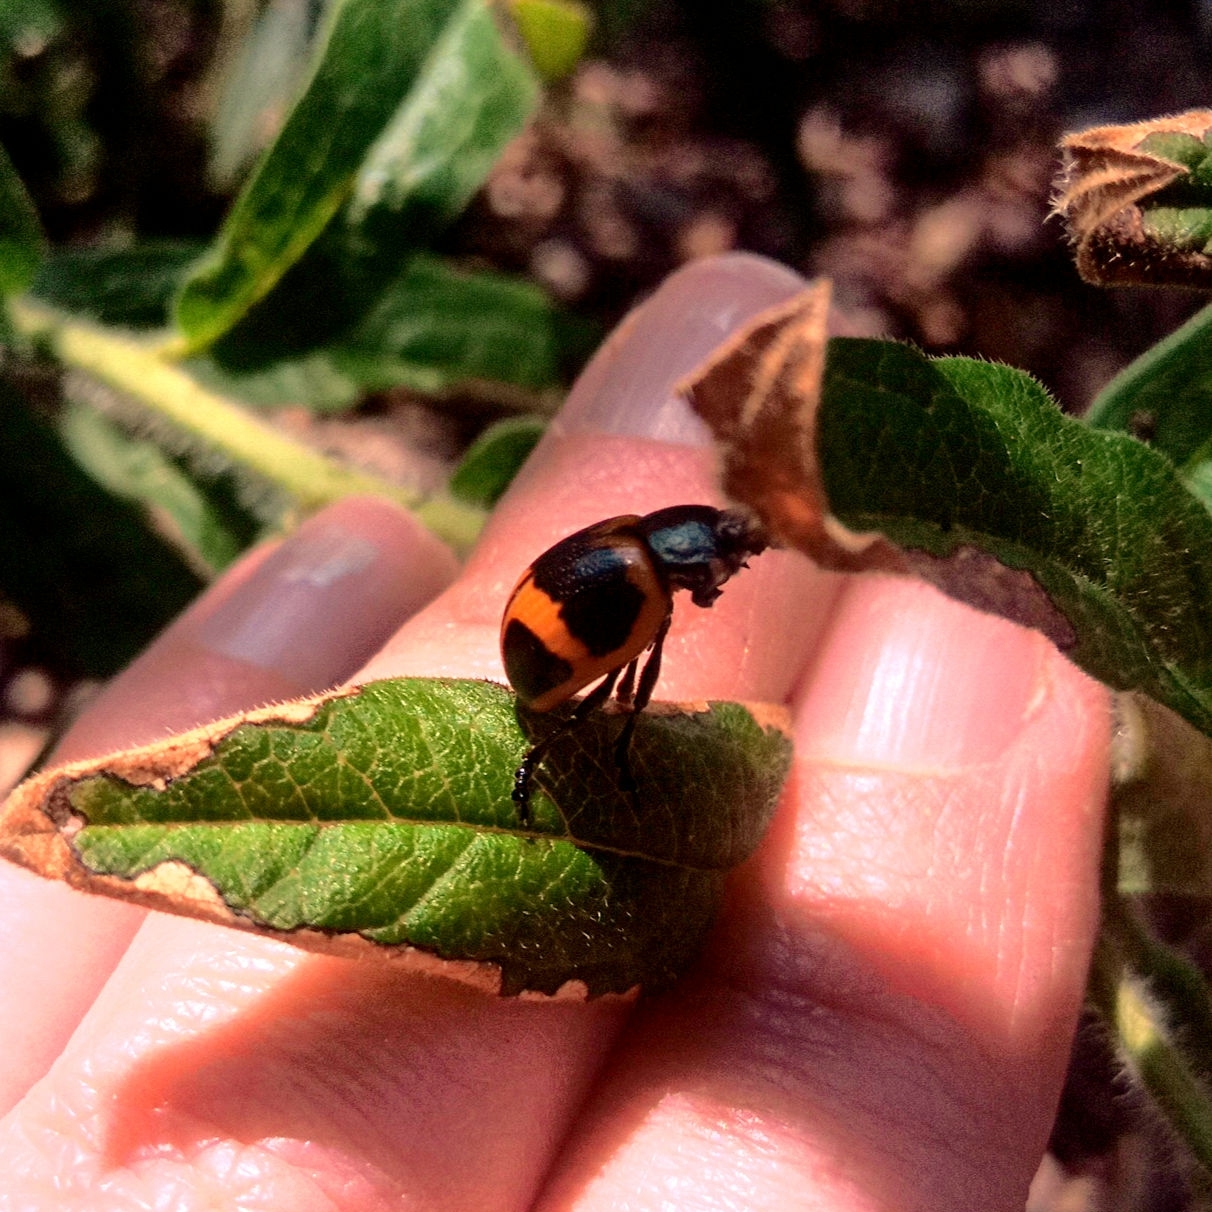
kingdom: Animalia
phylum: Arthropoda
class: Insecta
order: Coleoptera
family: Chrysomelidae
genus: Labidomera
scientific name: Labidomera clivicollis
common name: Swamp milkweed leaf beetle
